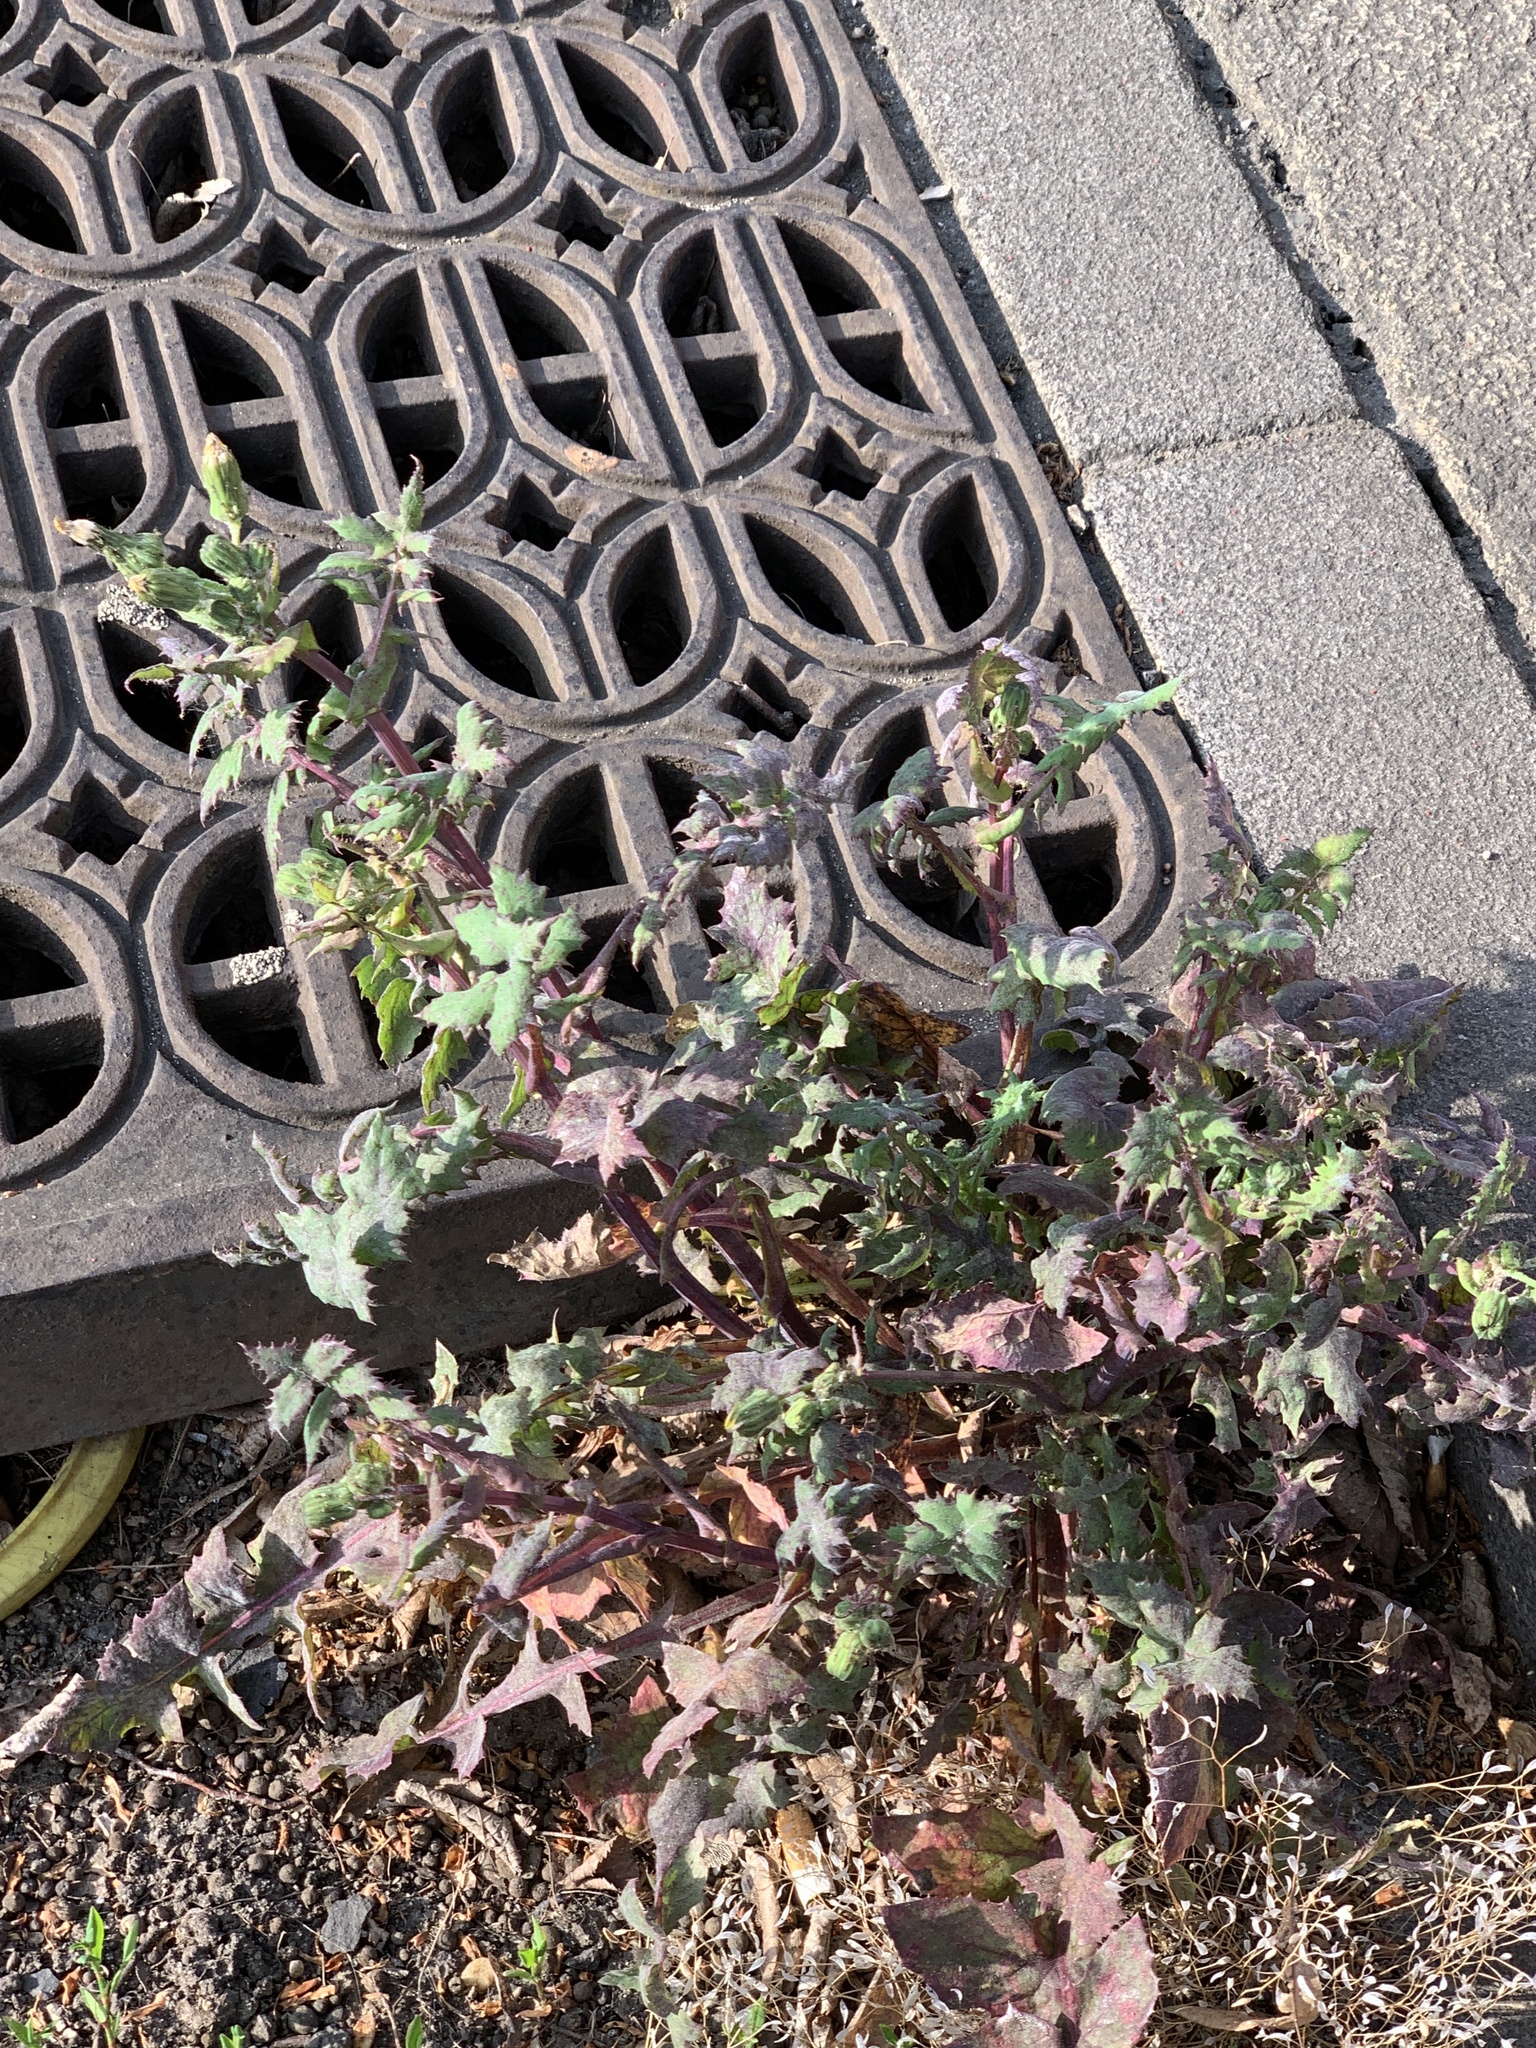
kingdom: Plantae
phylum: Tracheophyta
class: Magnoliopsida
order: Asterales
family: Asteraceae
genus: Sonchus
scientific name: Sonchus oleraceus
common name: Common sowthistle
